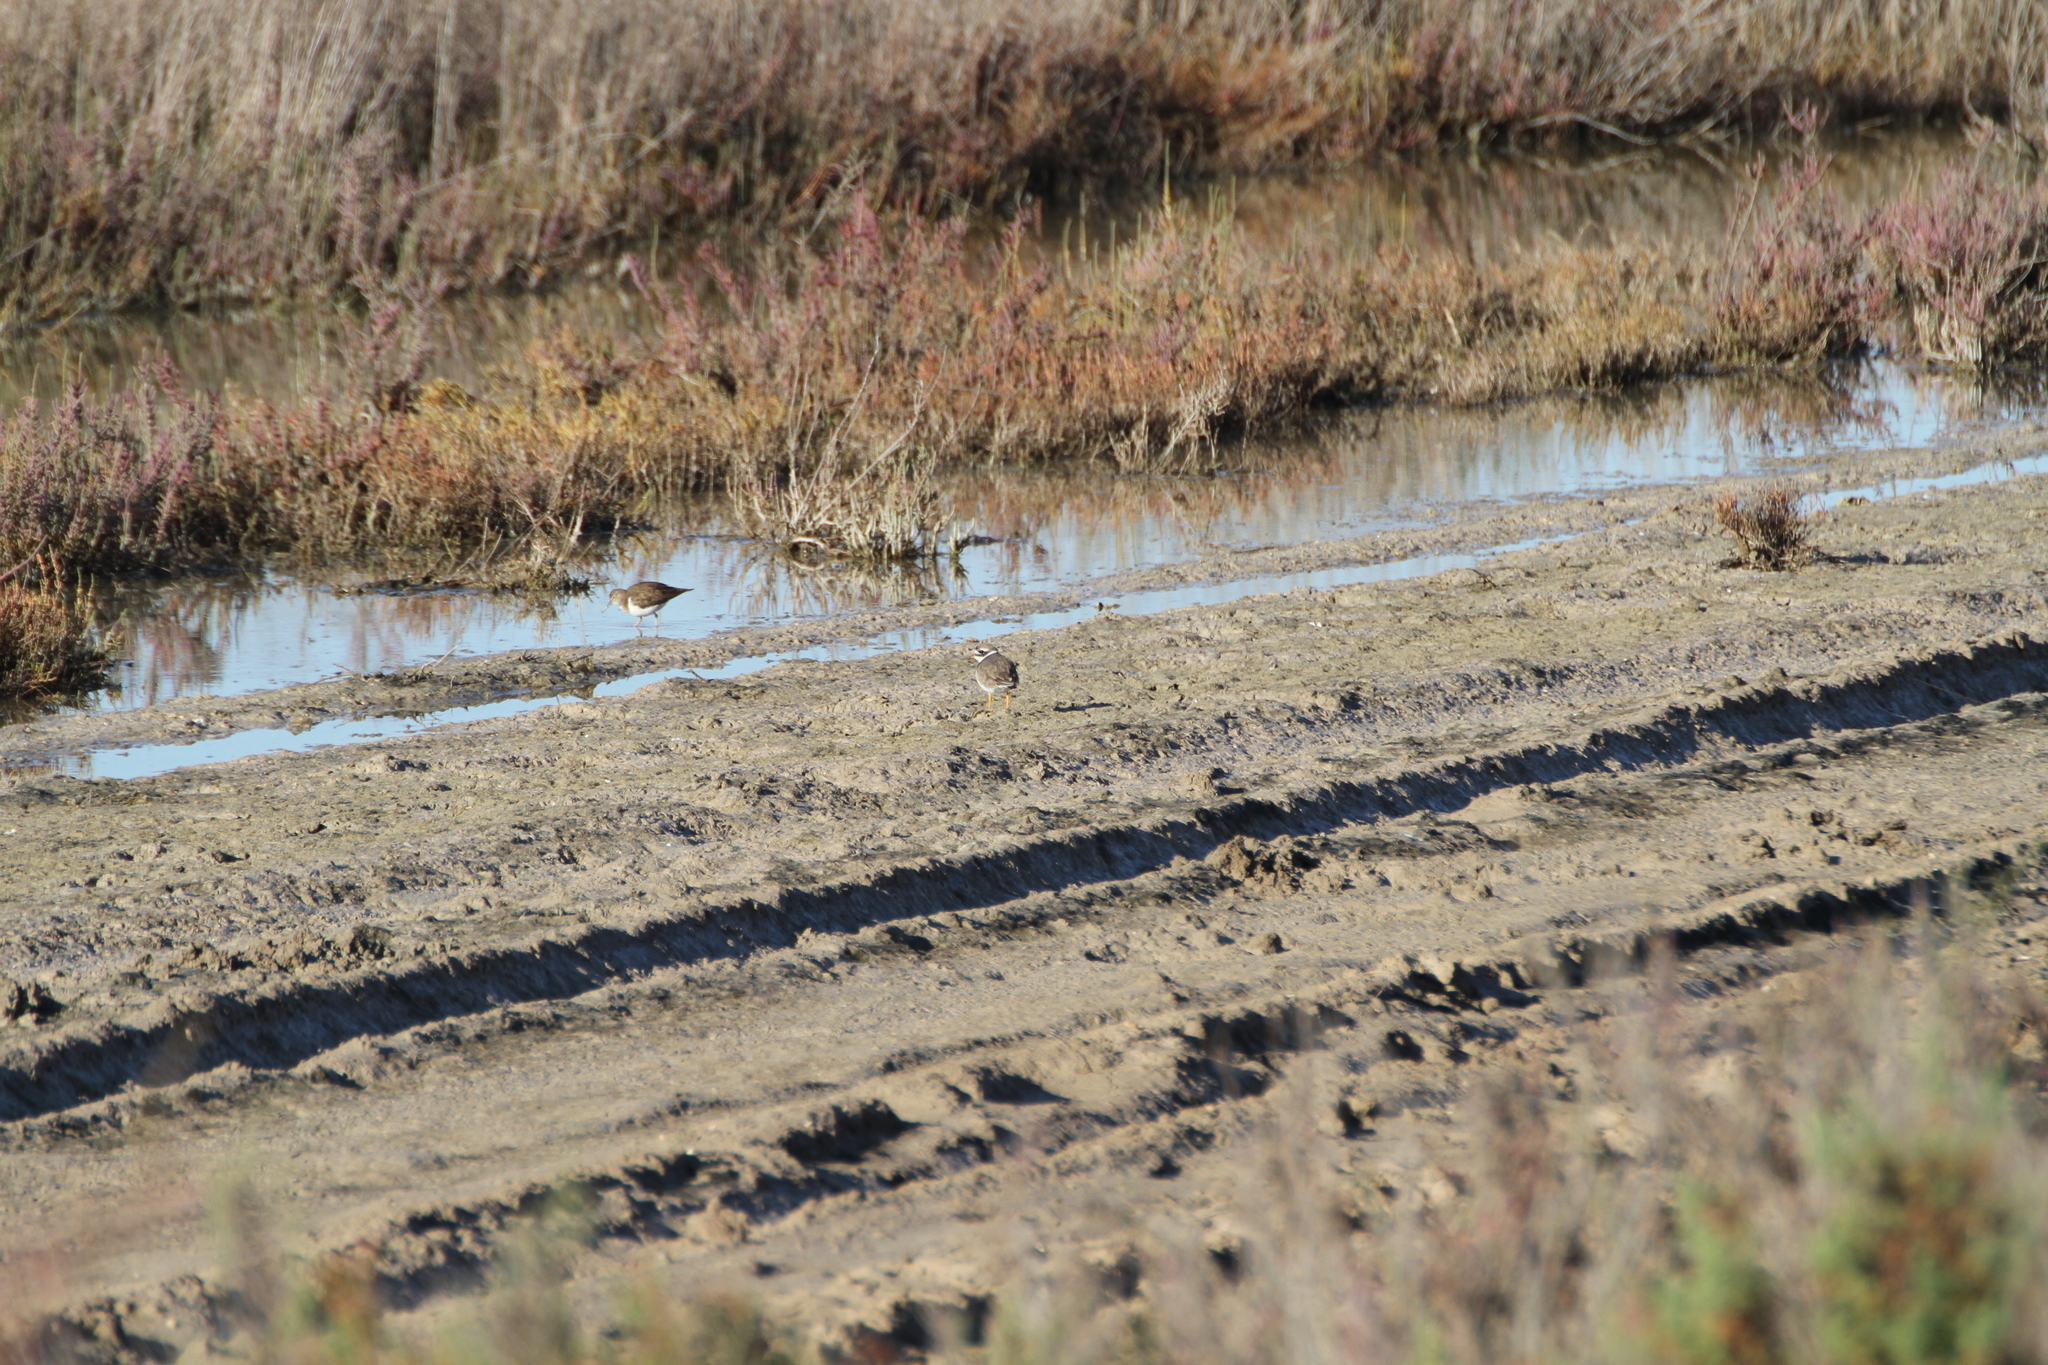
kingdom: Animalia
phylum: Chordata
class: Aves
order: Charadriiformes
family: Scolopacidae
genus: Actitis
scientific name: Actitis hypoleucos
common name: Common sandpiper
